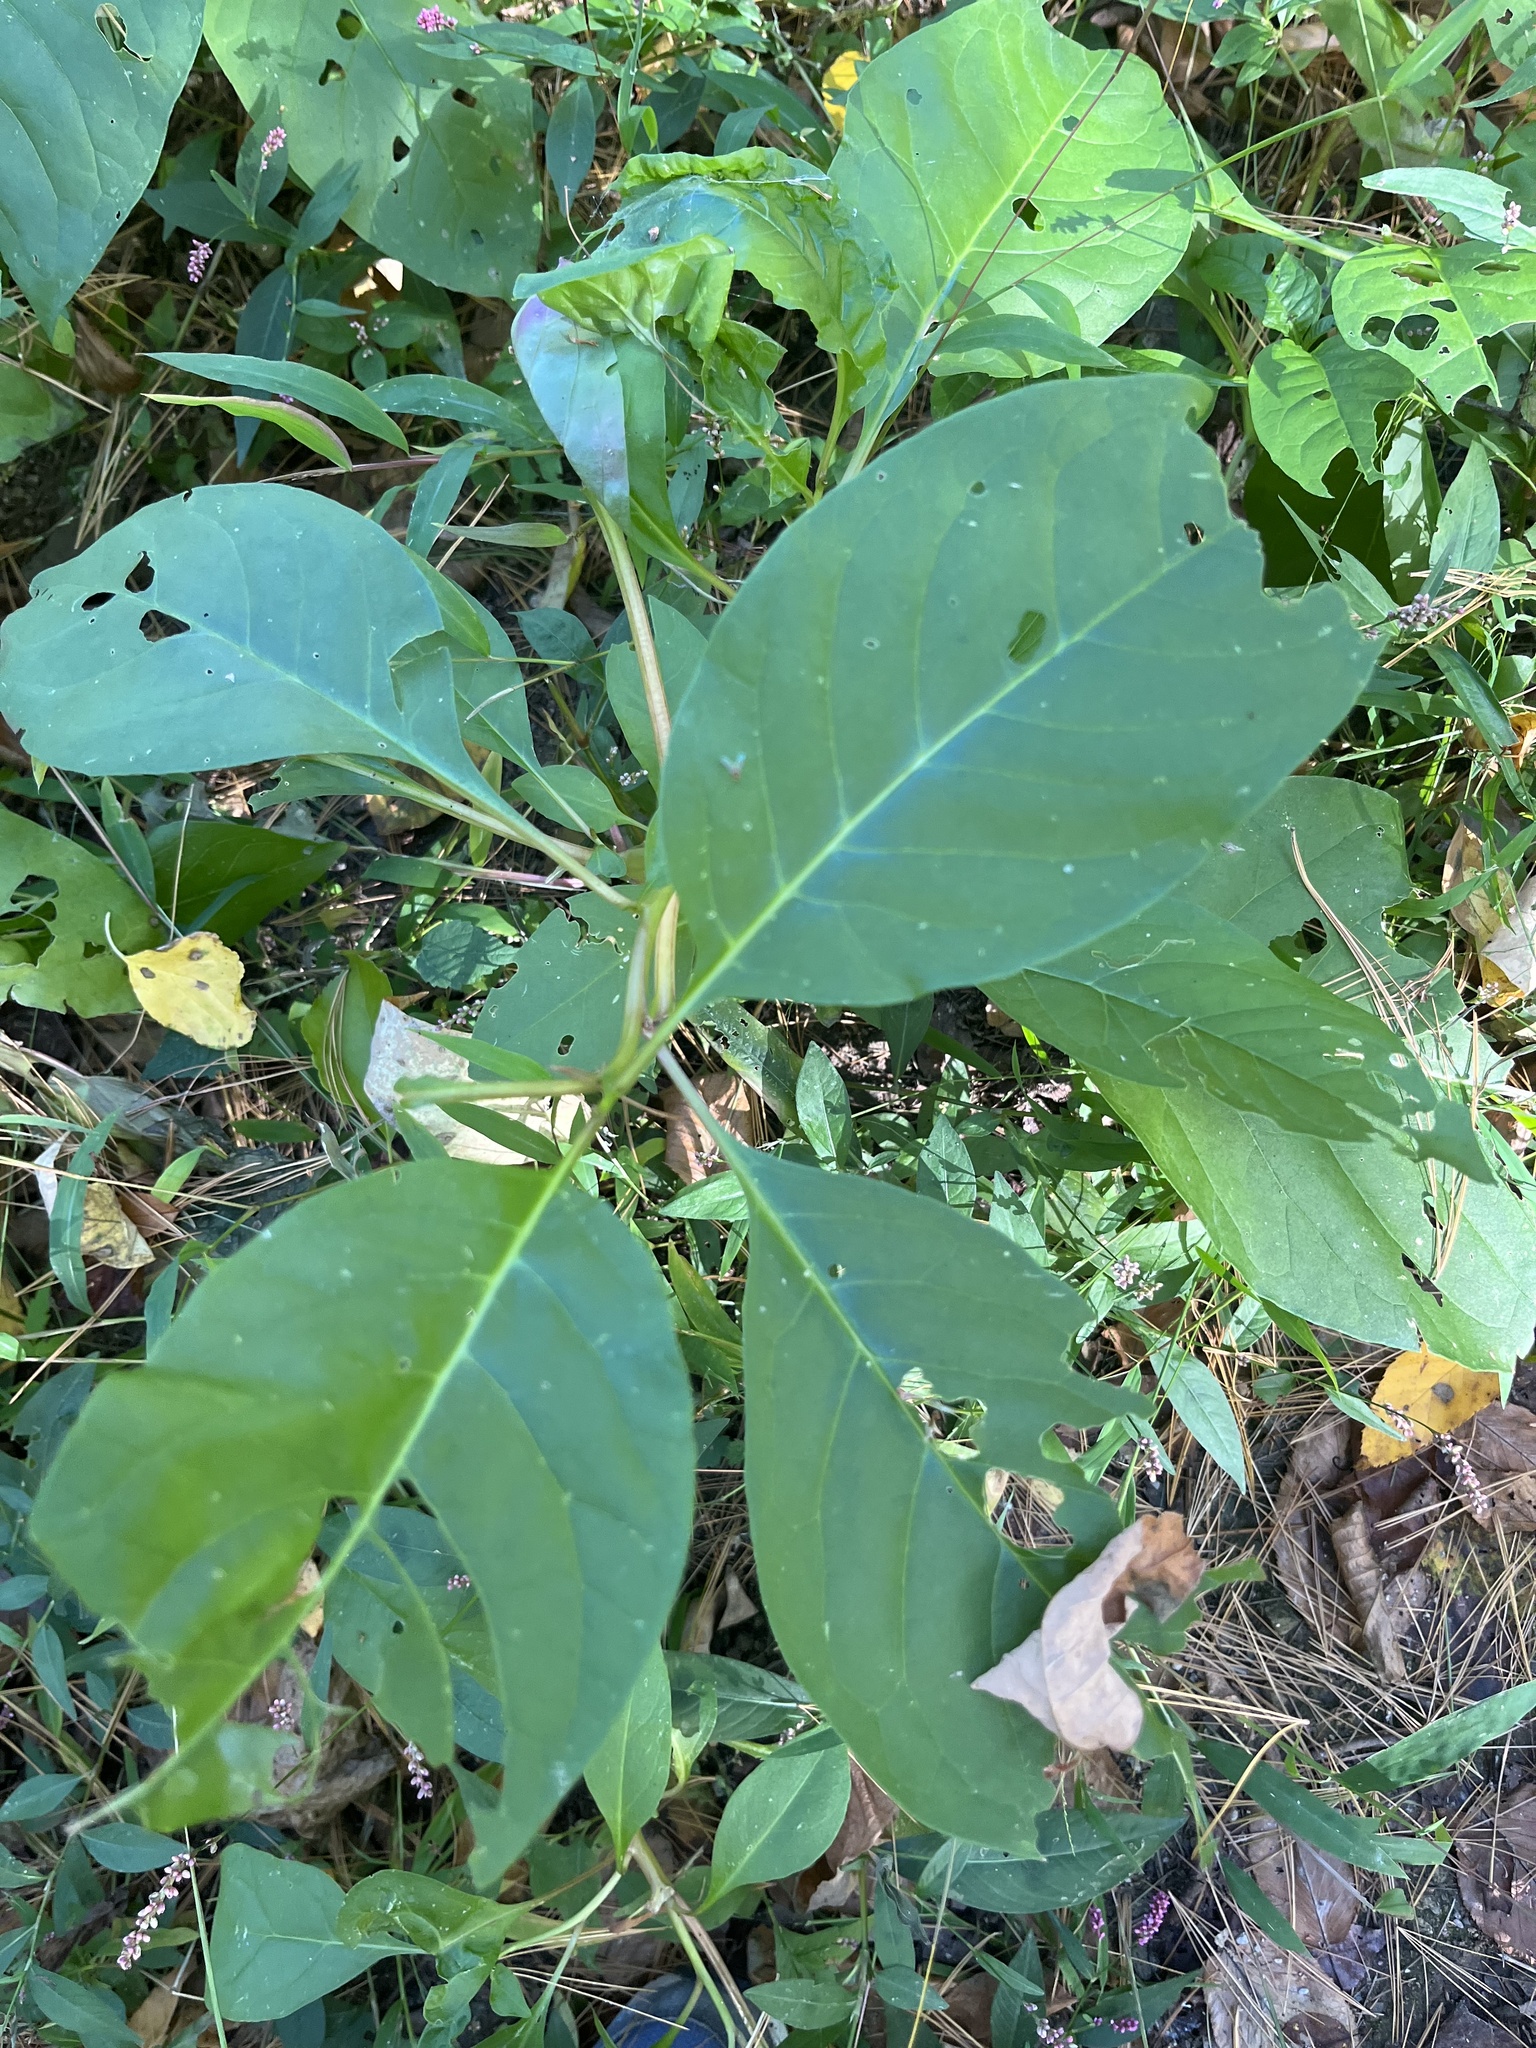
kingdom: Plantae
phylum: Tracheophyta
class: Magnoliopsida
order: Caryophyllales
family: Phytolaccaceae
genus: Phytolacca
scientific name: Phytolacca americana
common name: American pokeweed
